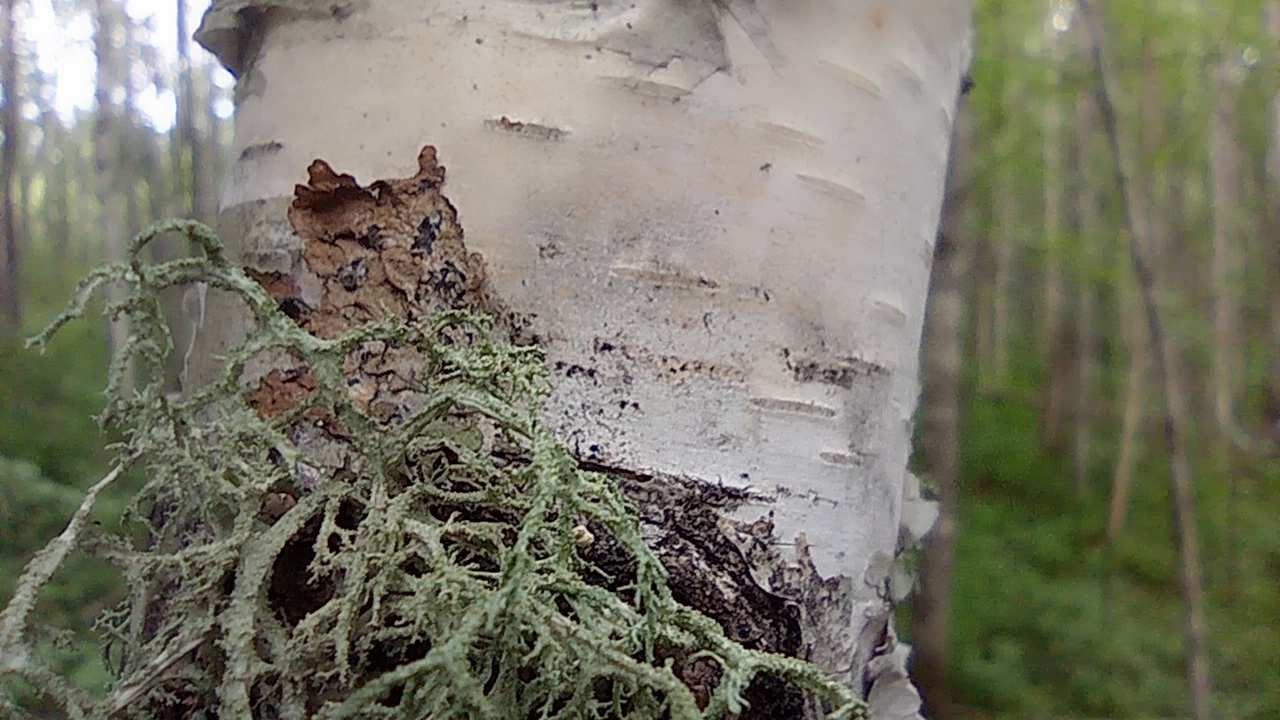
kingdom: Fungi
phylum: Ascomycota
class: Lecanoromycetes
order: Lecanorales
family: Parmeliaceae
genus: Evernia
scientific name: Evernia mesomorpha
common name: Boreal oak moss lichen
